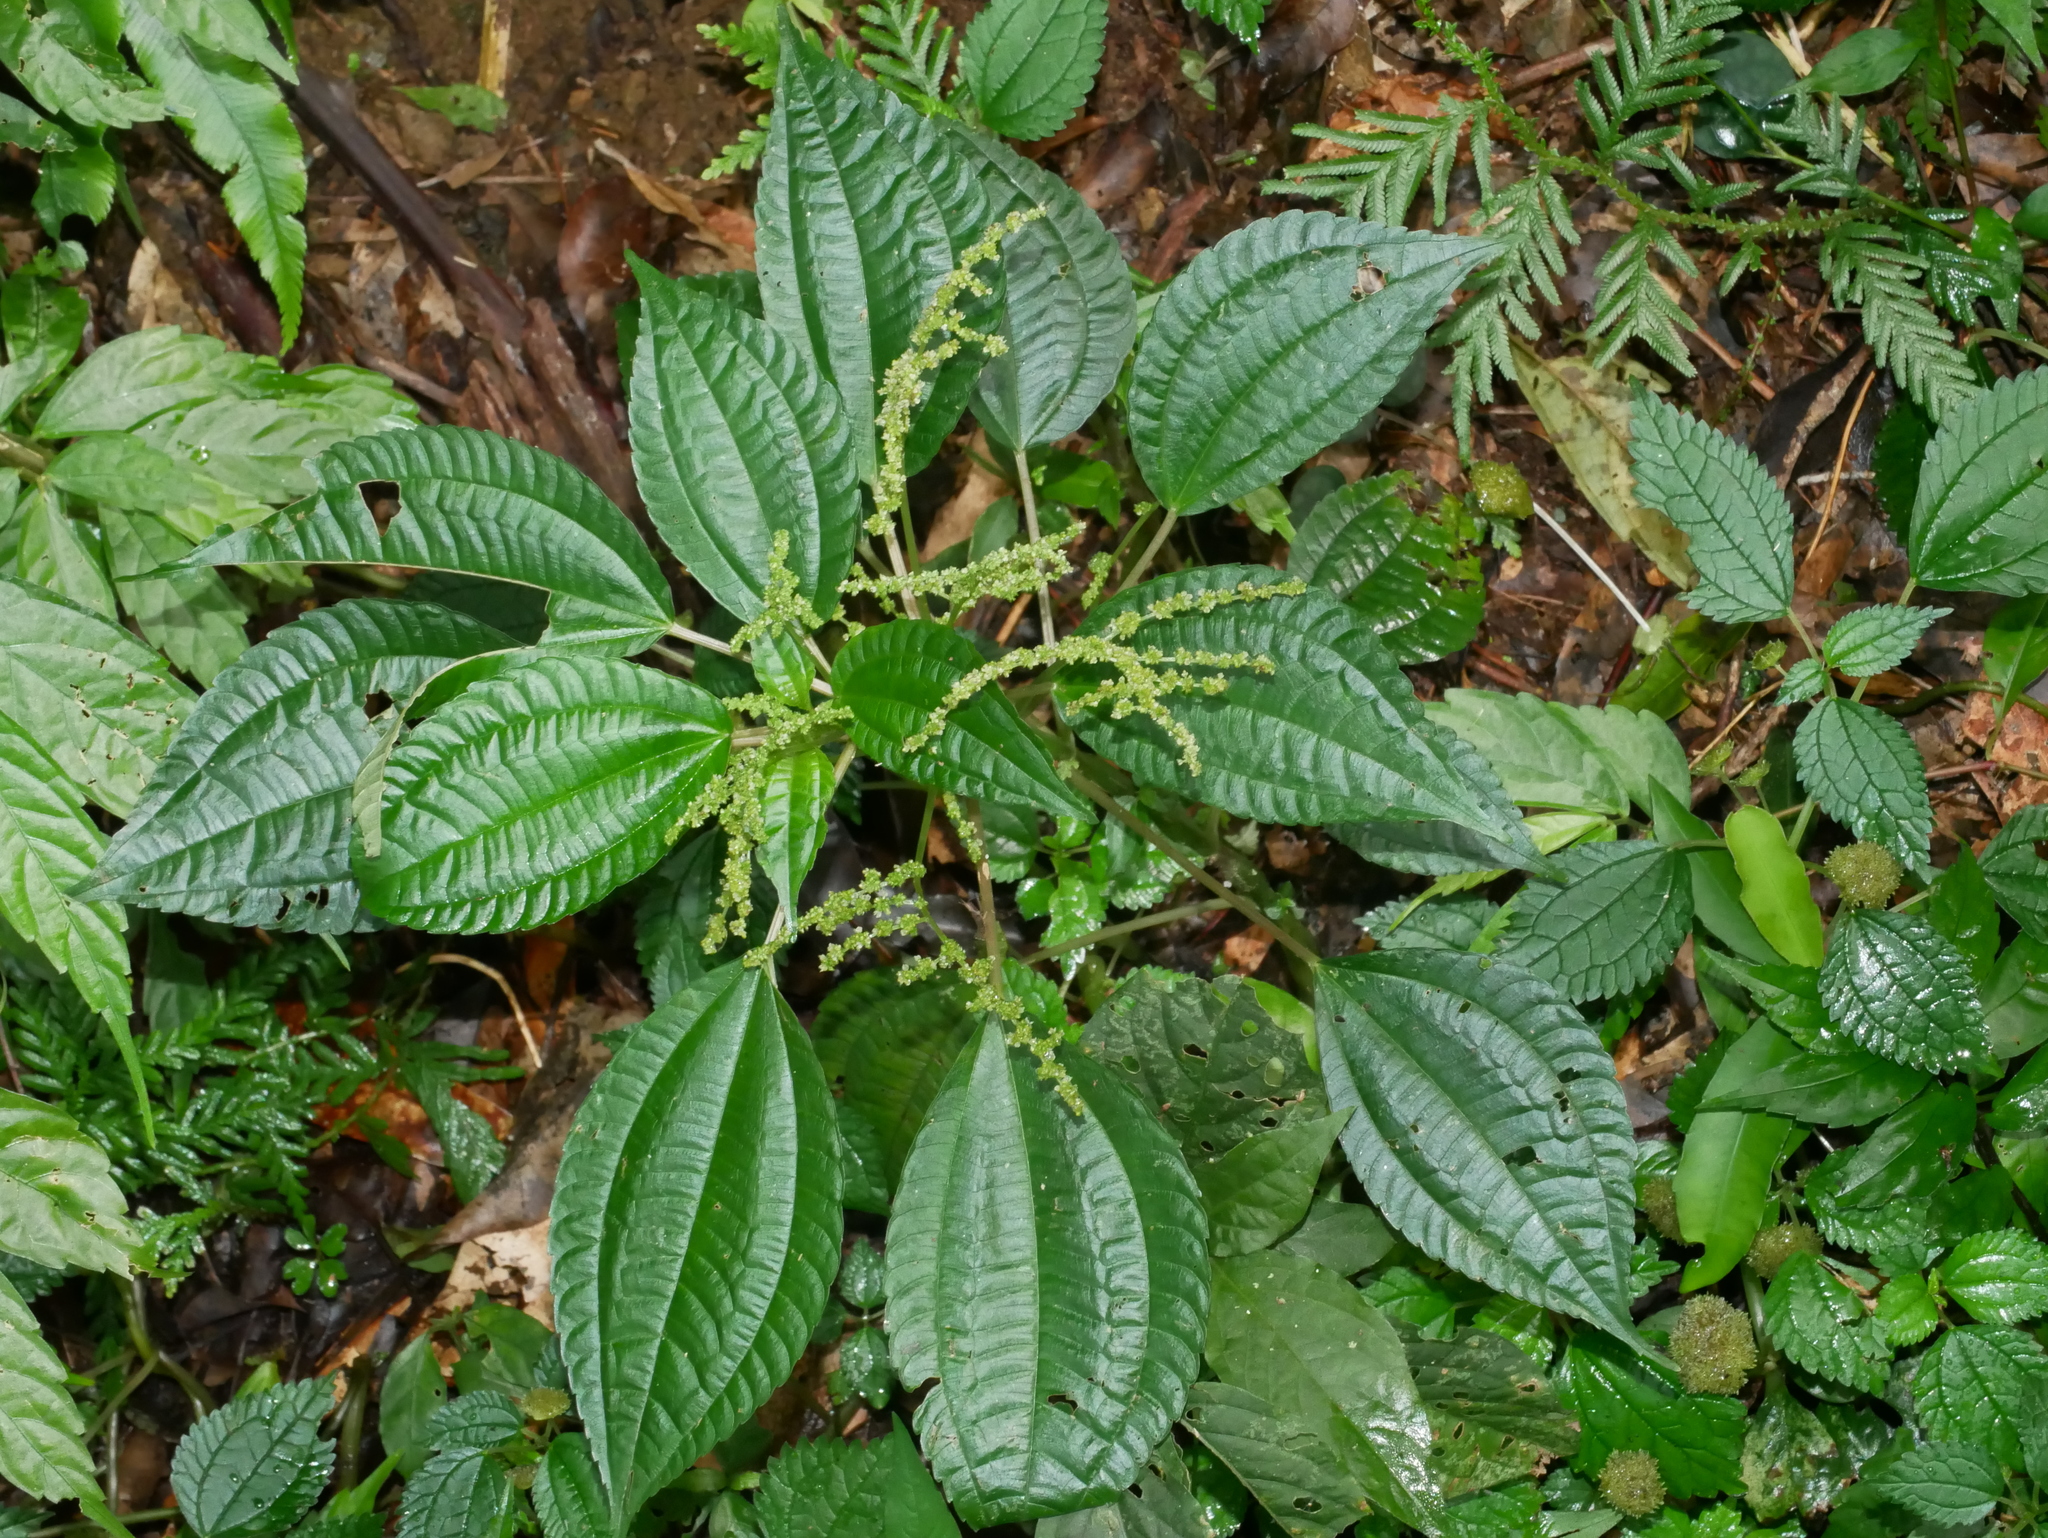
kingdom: Plantae
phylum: Tracheophyta
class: Magnoliopsida
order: Rosales
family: Urticaceae
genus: Pilea
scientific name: Pilea melastomoides
